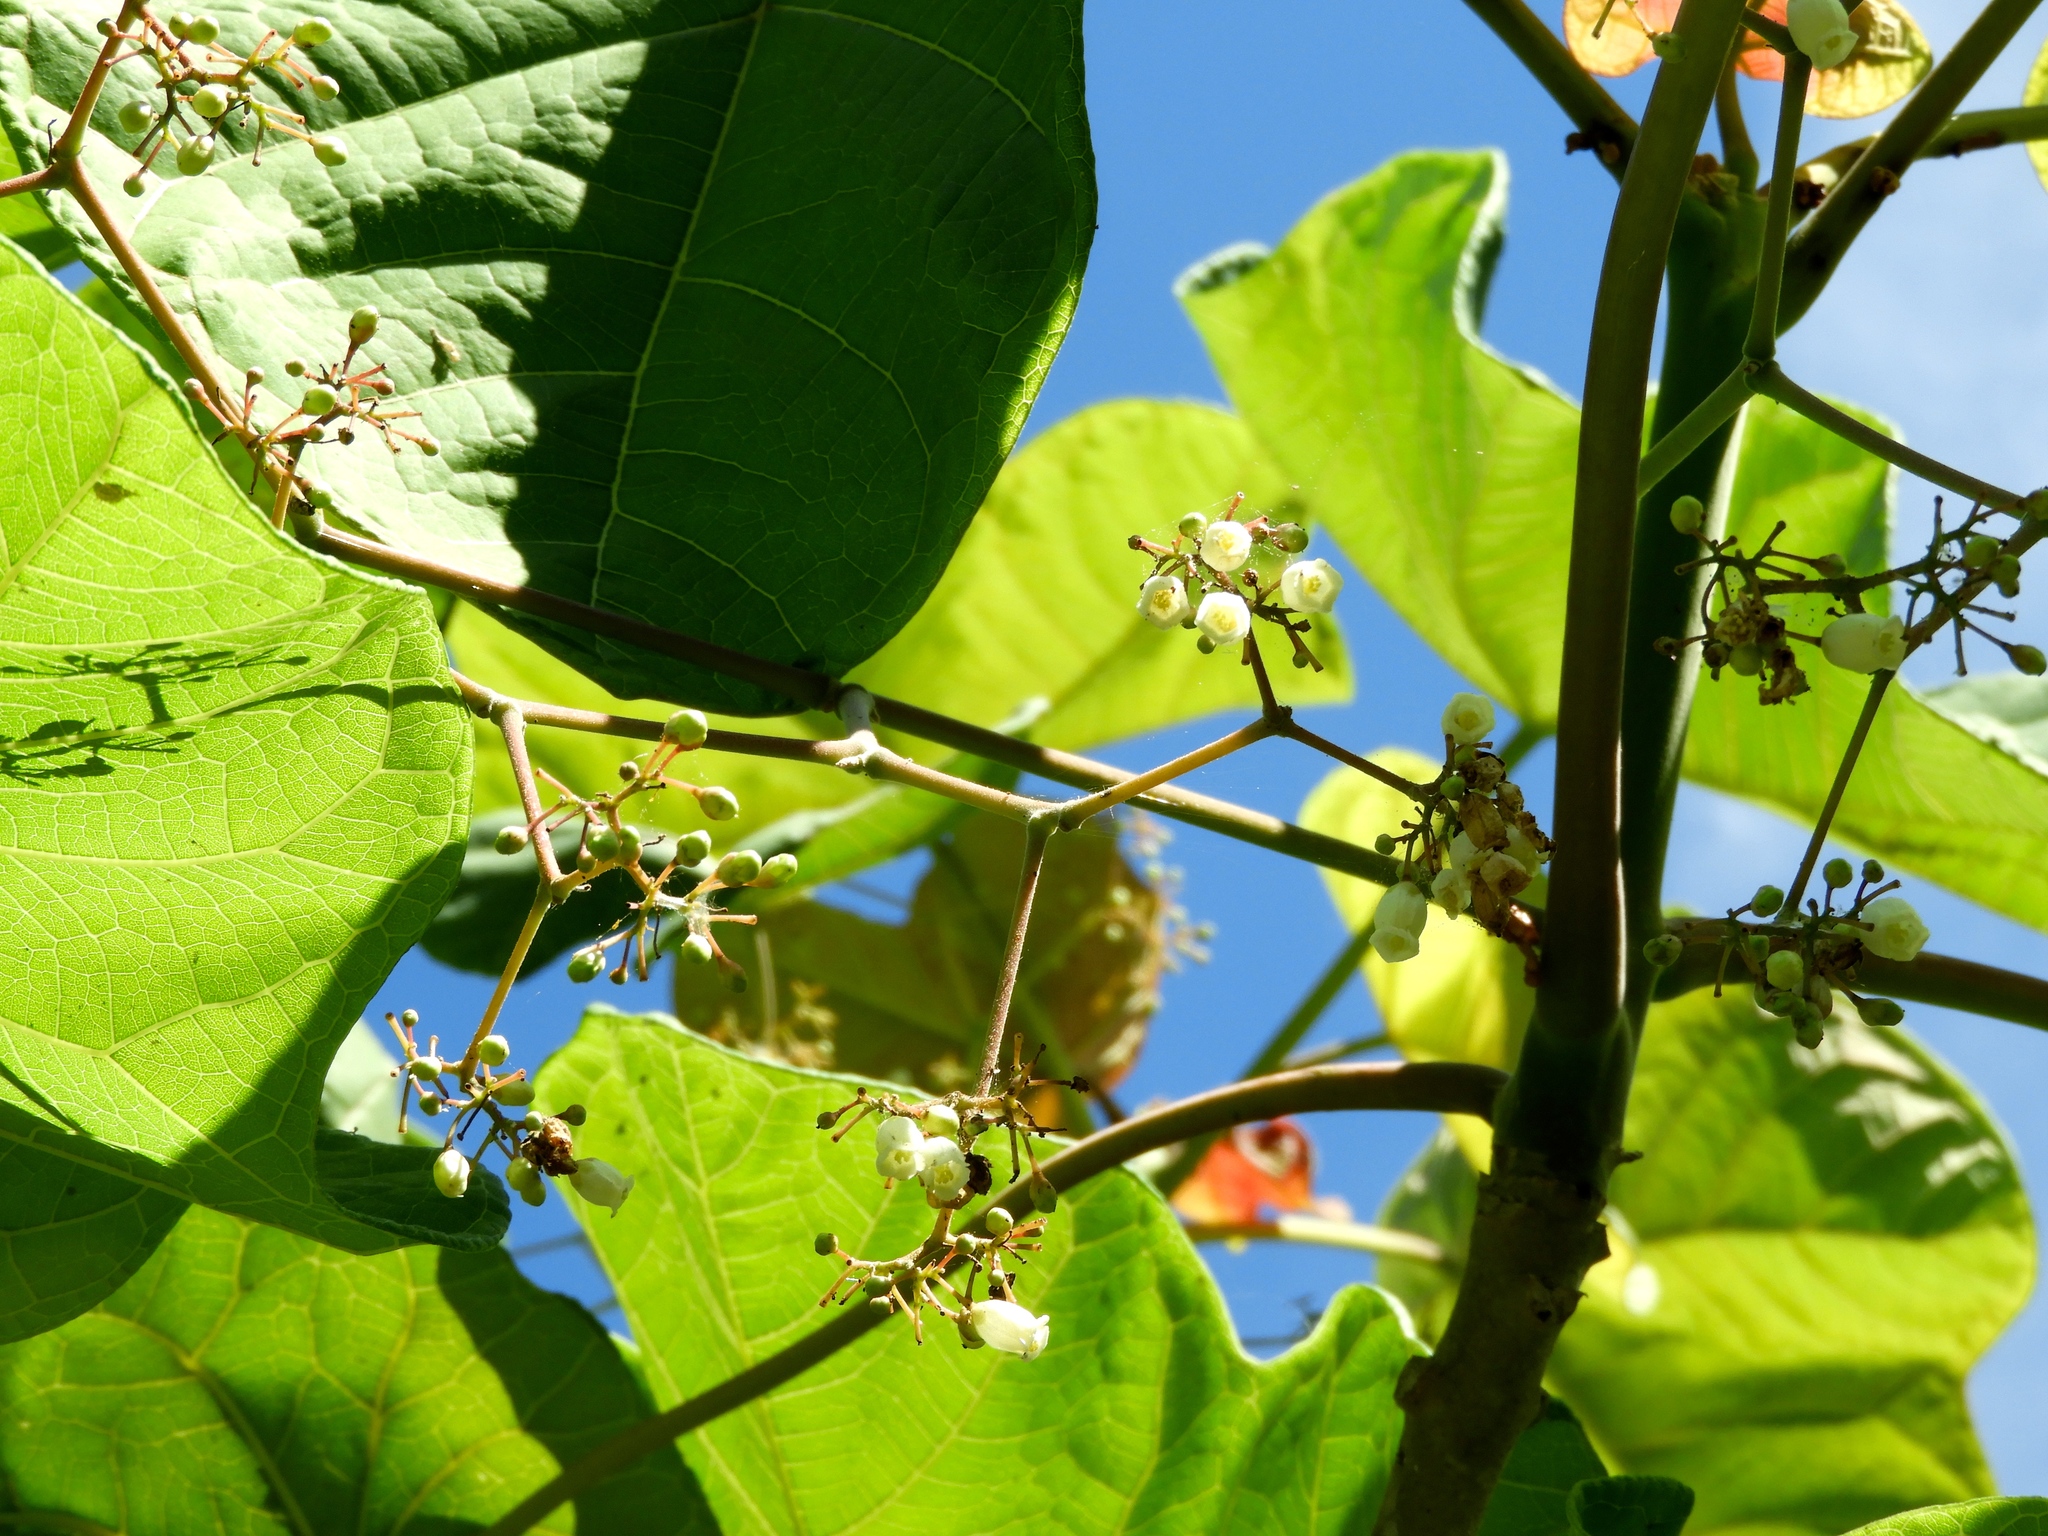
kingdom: Plantae
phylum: Tracheophyta
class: Magnoliopsida
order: Malpighiales
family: Euphorbiaceae
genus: Jatropha
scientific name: Jatropha peltata
